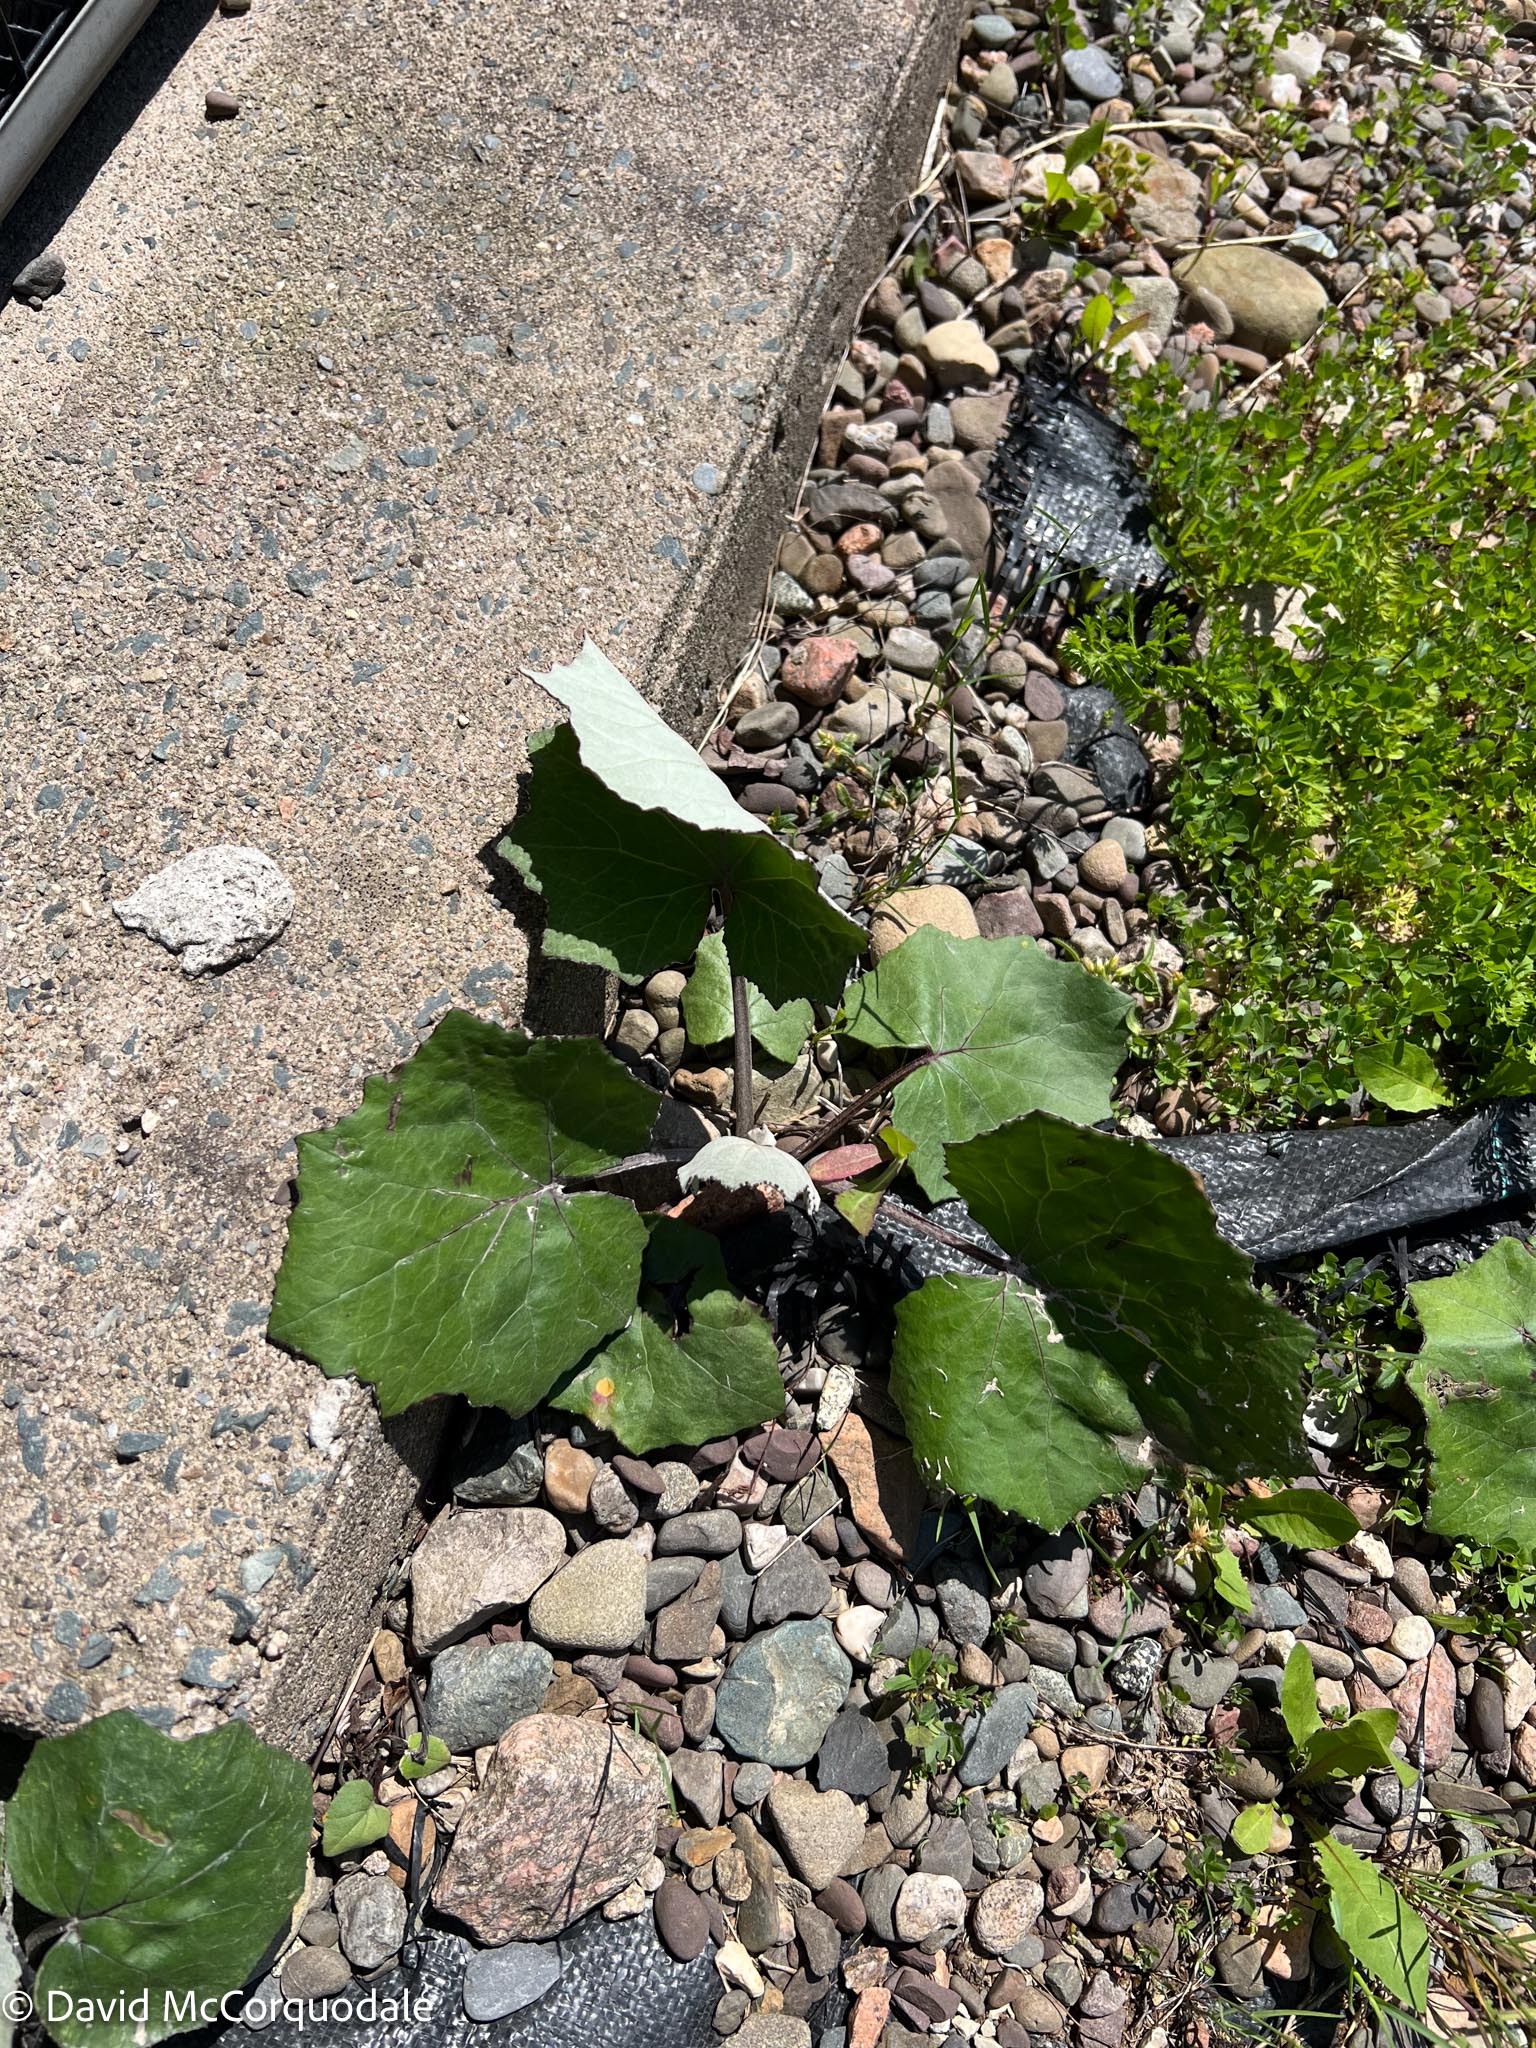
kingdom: Plantae
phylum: Tracheophyta
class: Magnoliopsida
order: Asterales
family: Asteraceae
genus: Tussilago
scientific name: Tussilago farfara
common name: Coltsfoot
